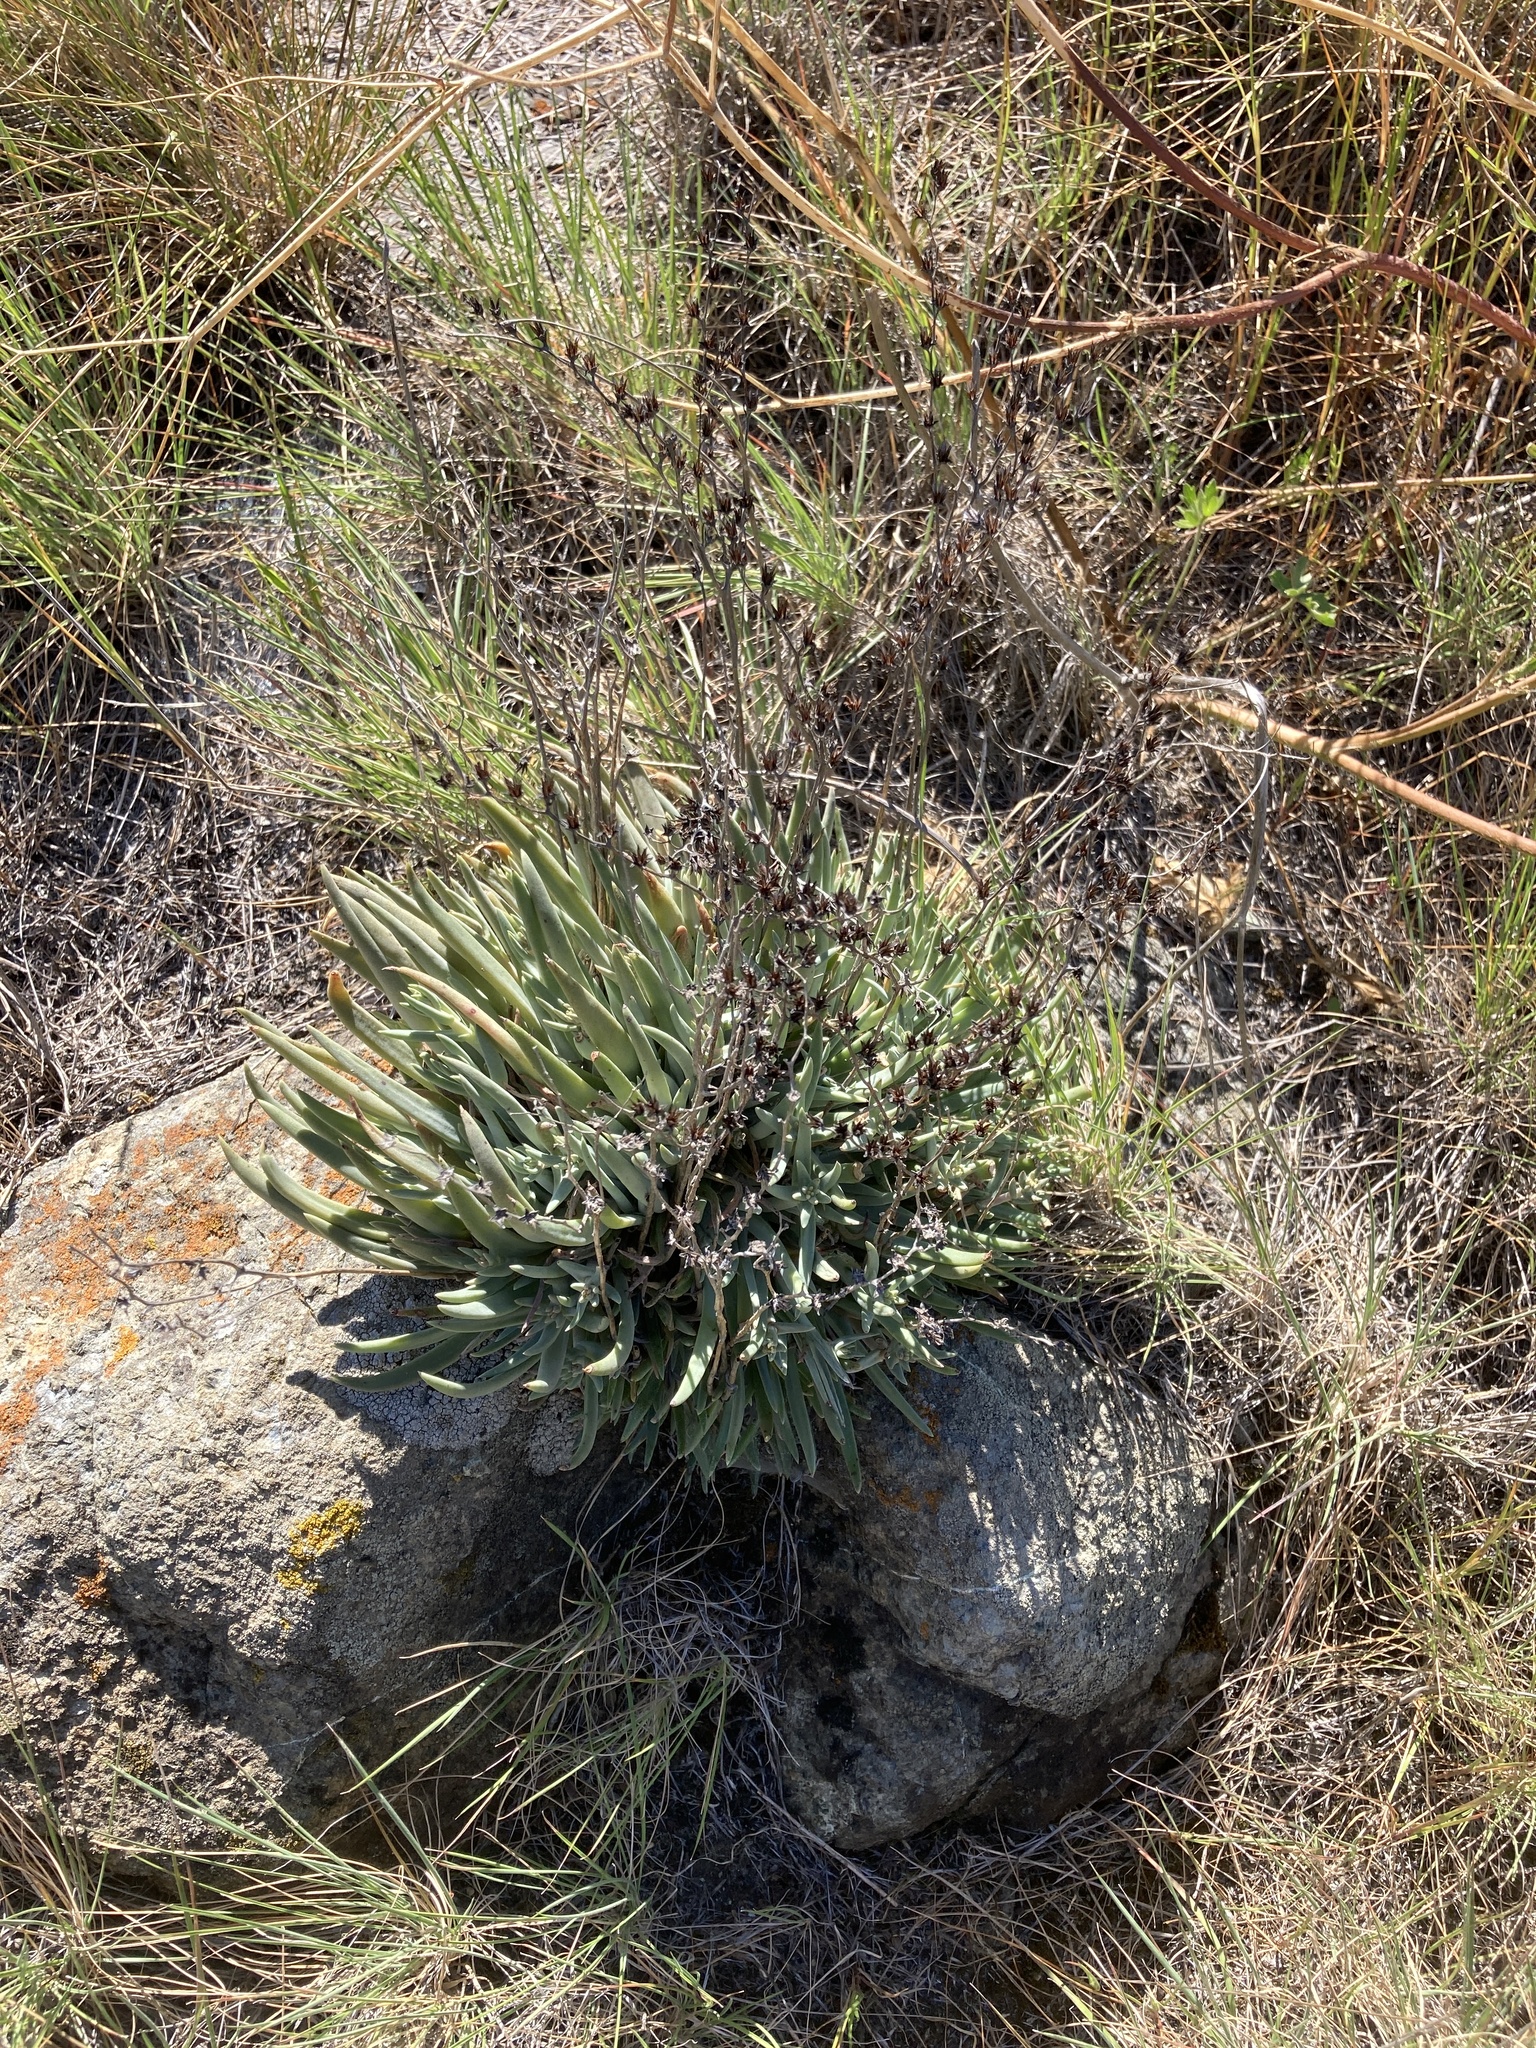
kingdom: Plantae
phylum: Tracheophyta
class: Magnoliopsida
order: Saxifragales
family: Crassulaceae
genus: Dudleya
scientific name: Dudleya abramsii
